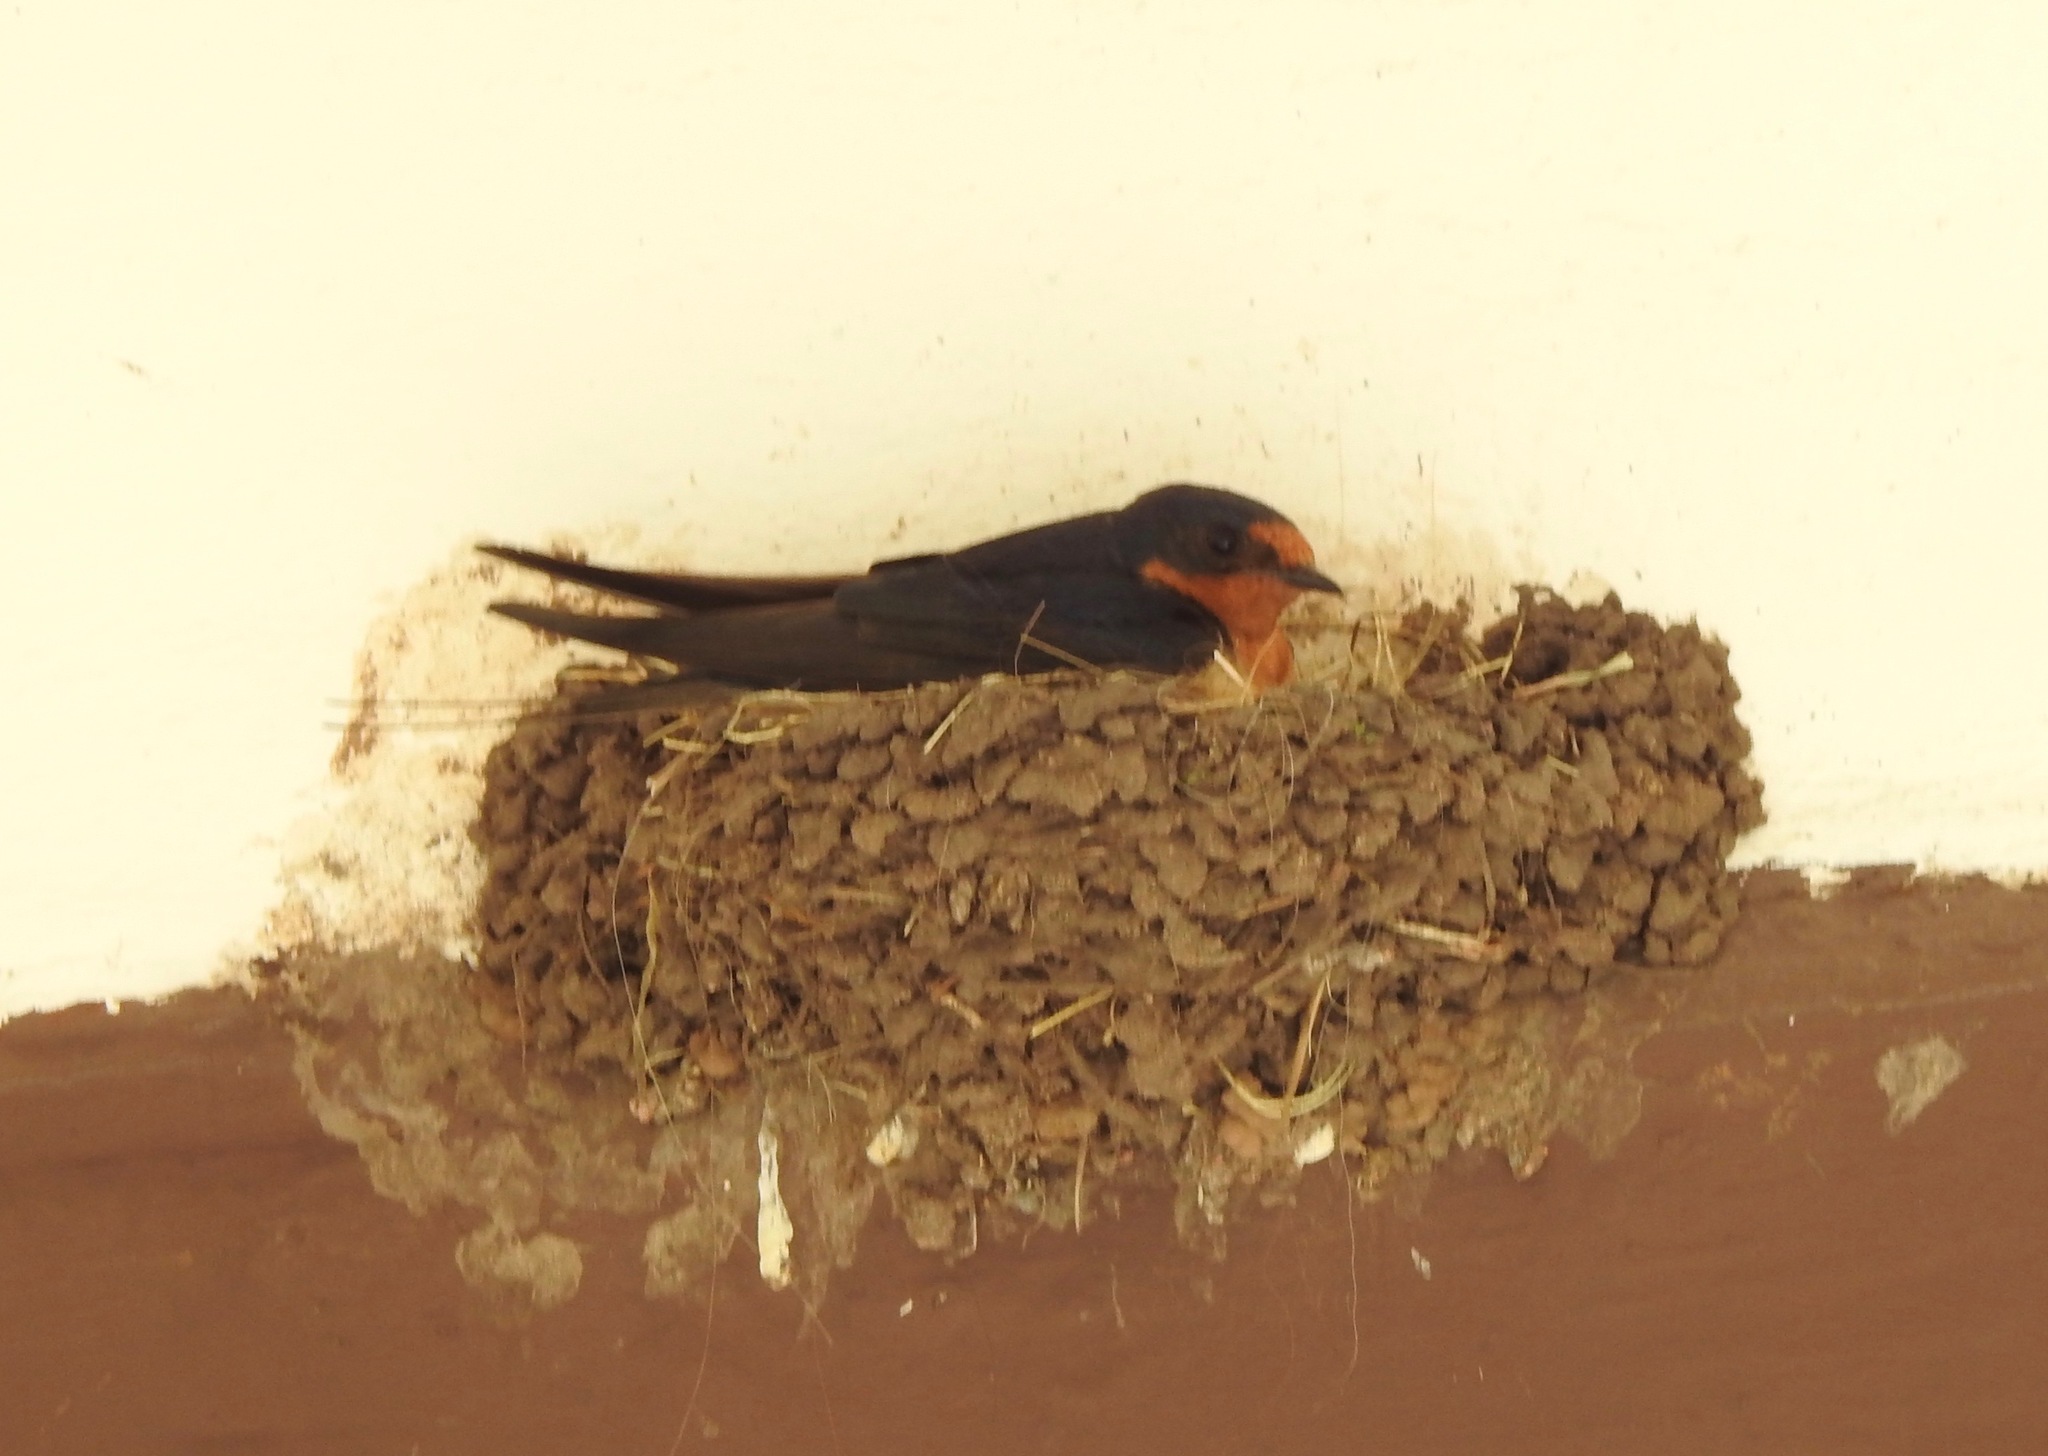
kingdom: Animalia
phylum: Chordata
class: Aves
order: Passeriformes
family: Hirundinidae
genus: Hirundo
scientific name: Hirundo rustica
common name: Barn swallow
